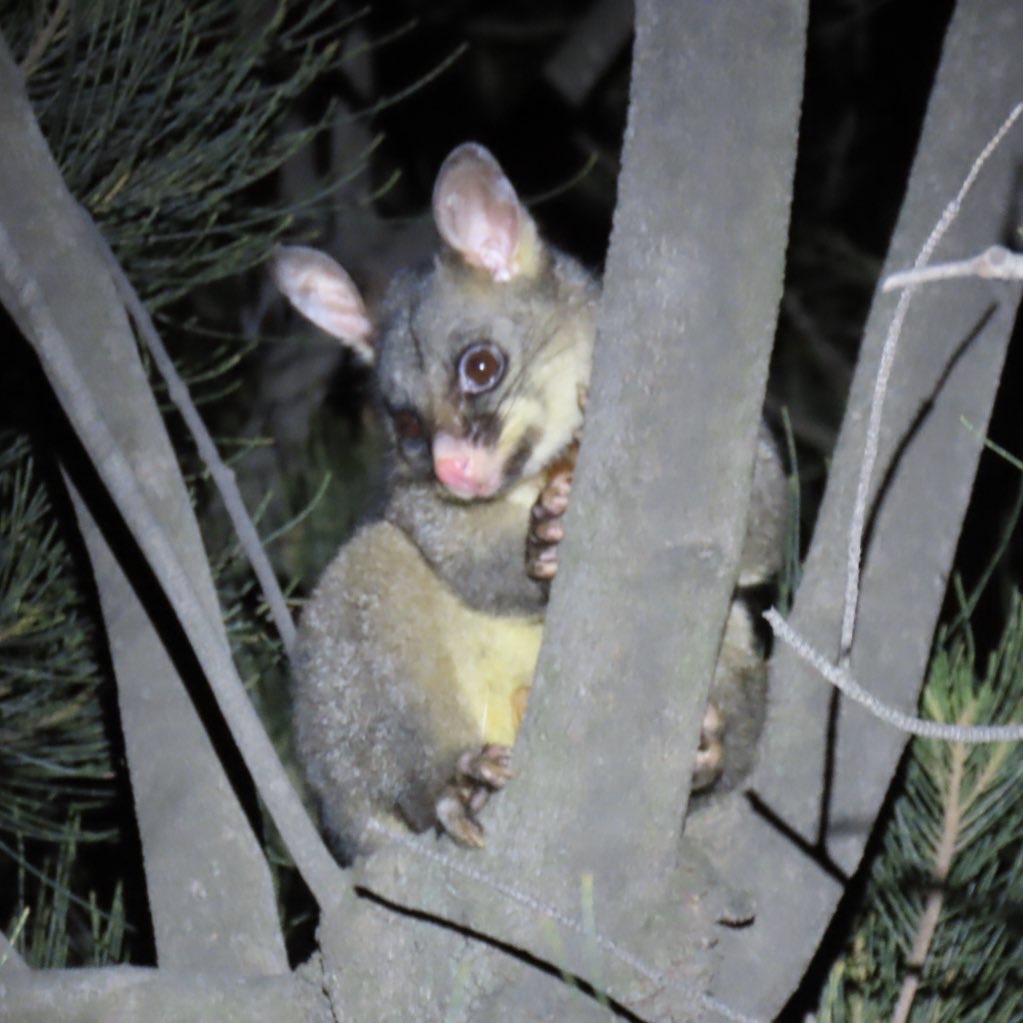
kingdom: Animalia
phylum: Chordata
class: Mammalia
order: Diprotodontia
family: Phalangeridae
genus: Trichosurus
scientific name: Trichosurus vulpecula
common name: Common brushtail
